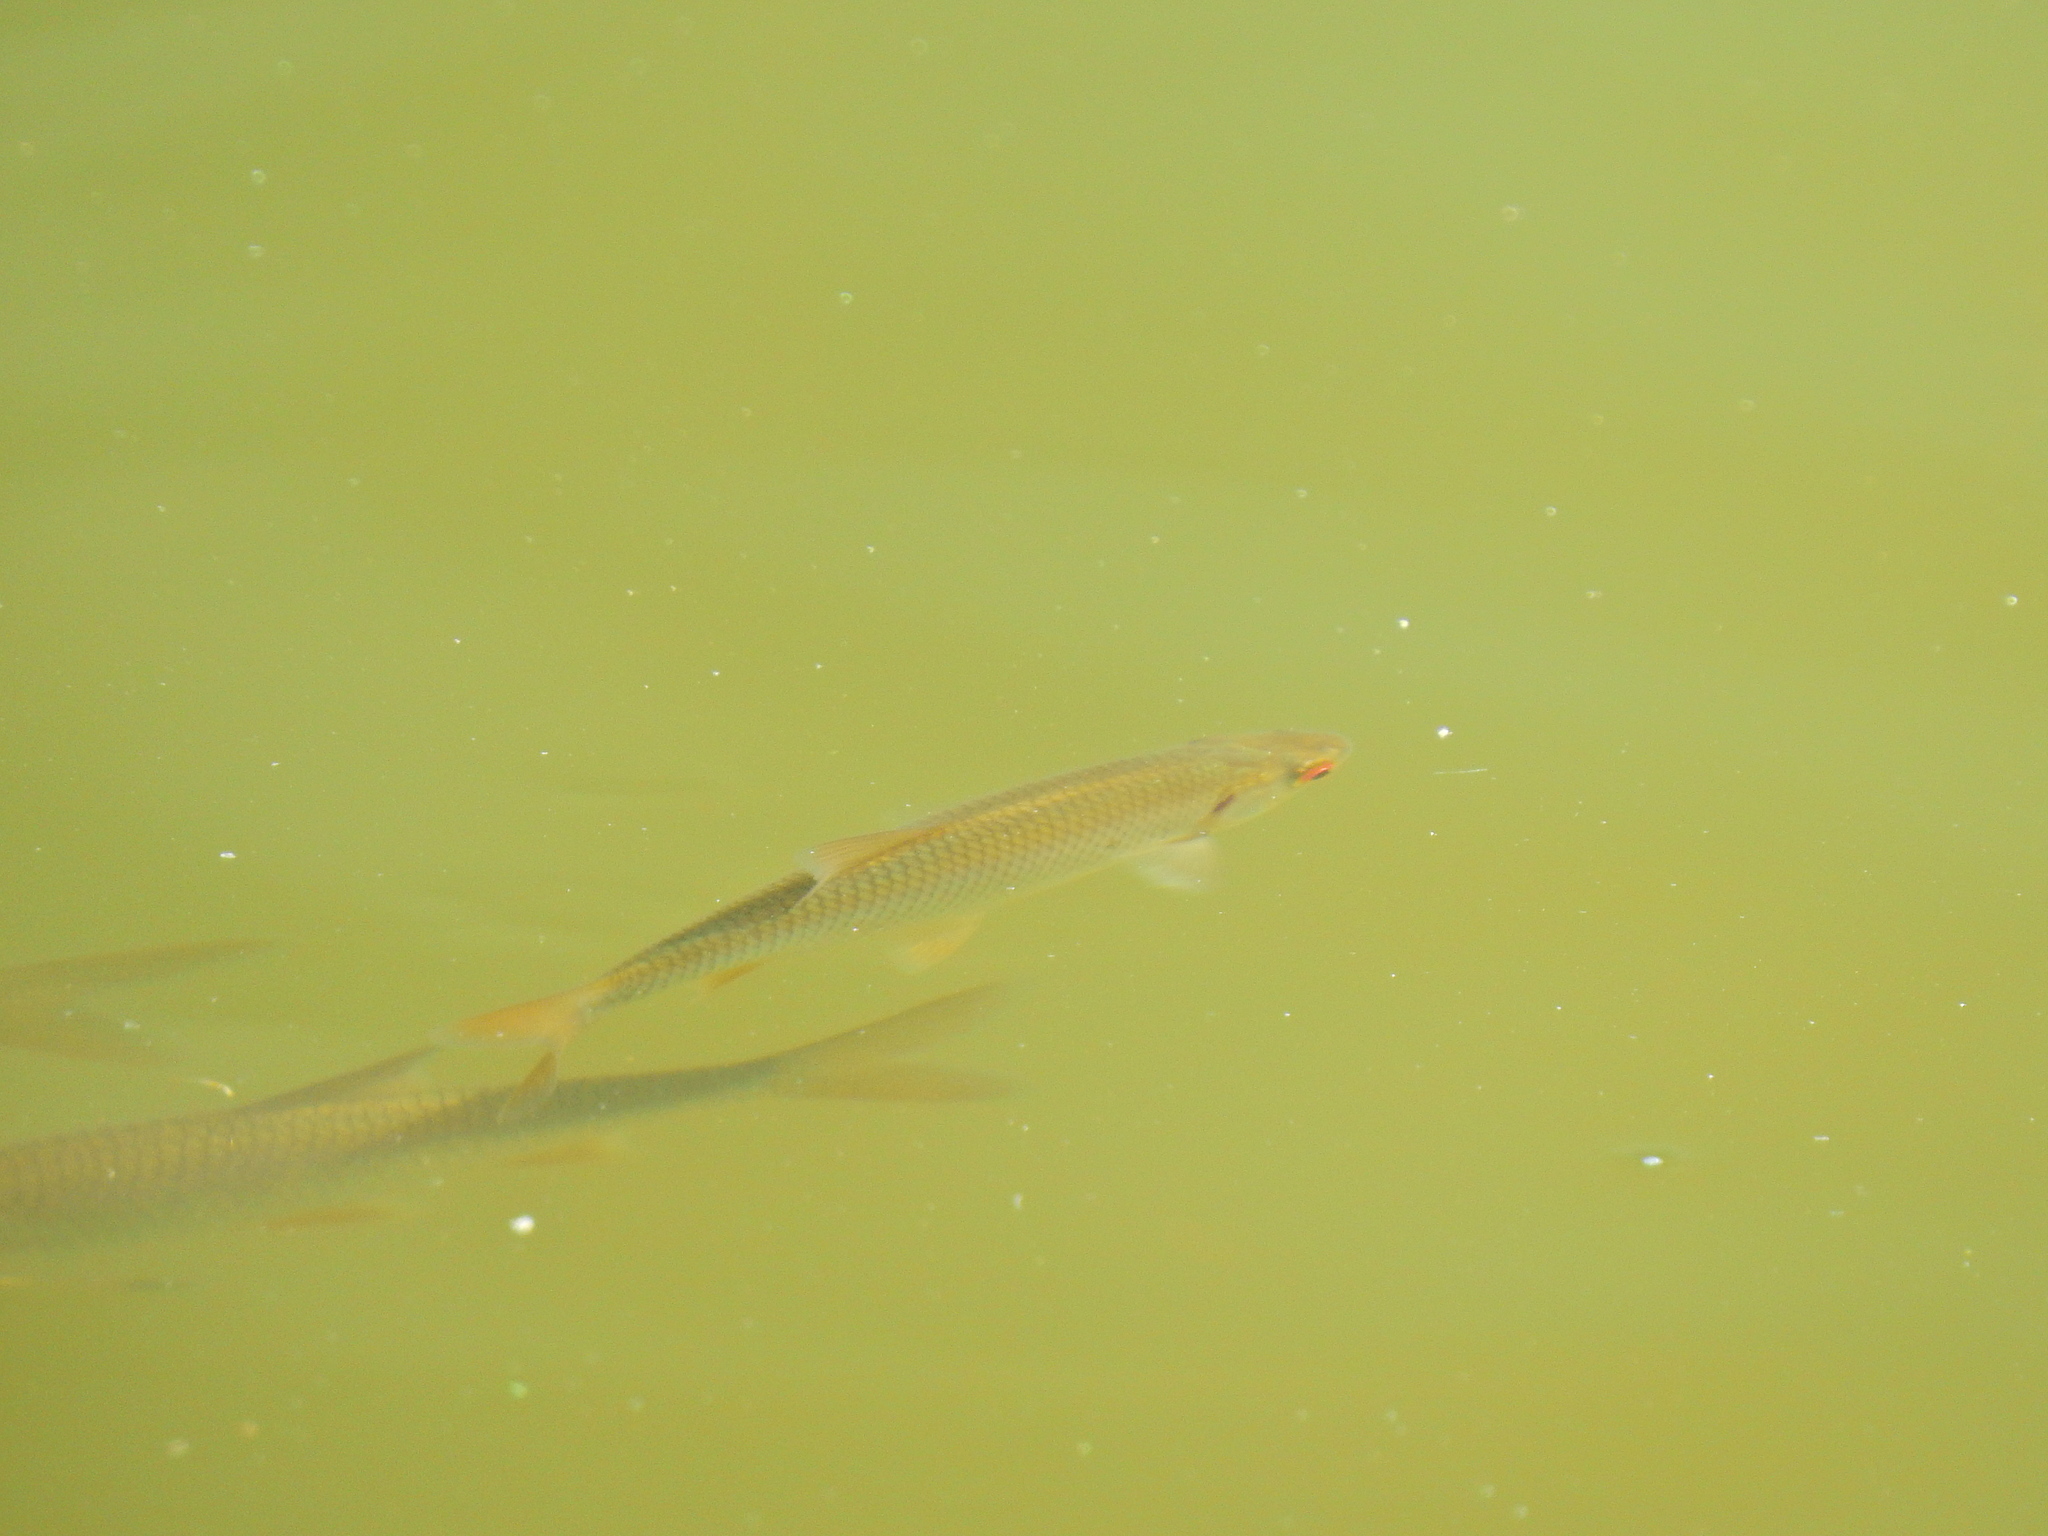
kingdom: Animalia
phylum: Chordata
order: Cypriniformes
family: Cyprinidae
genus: Rutilus
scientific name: Rutilus rutilus
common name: Roach
